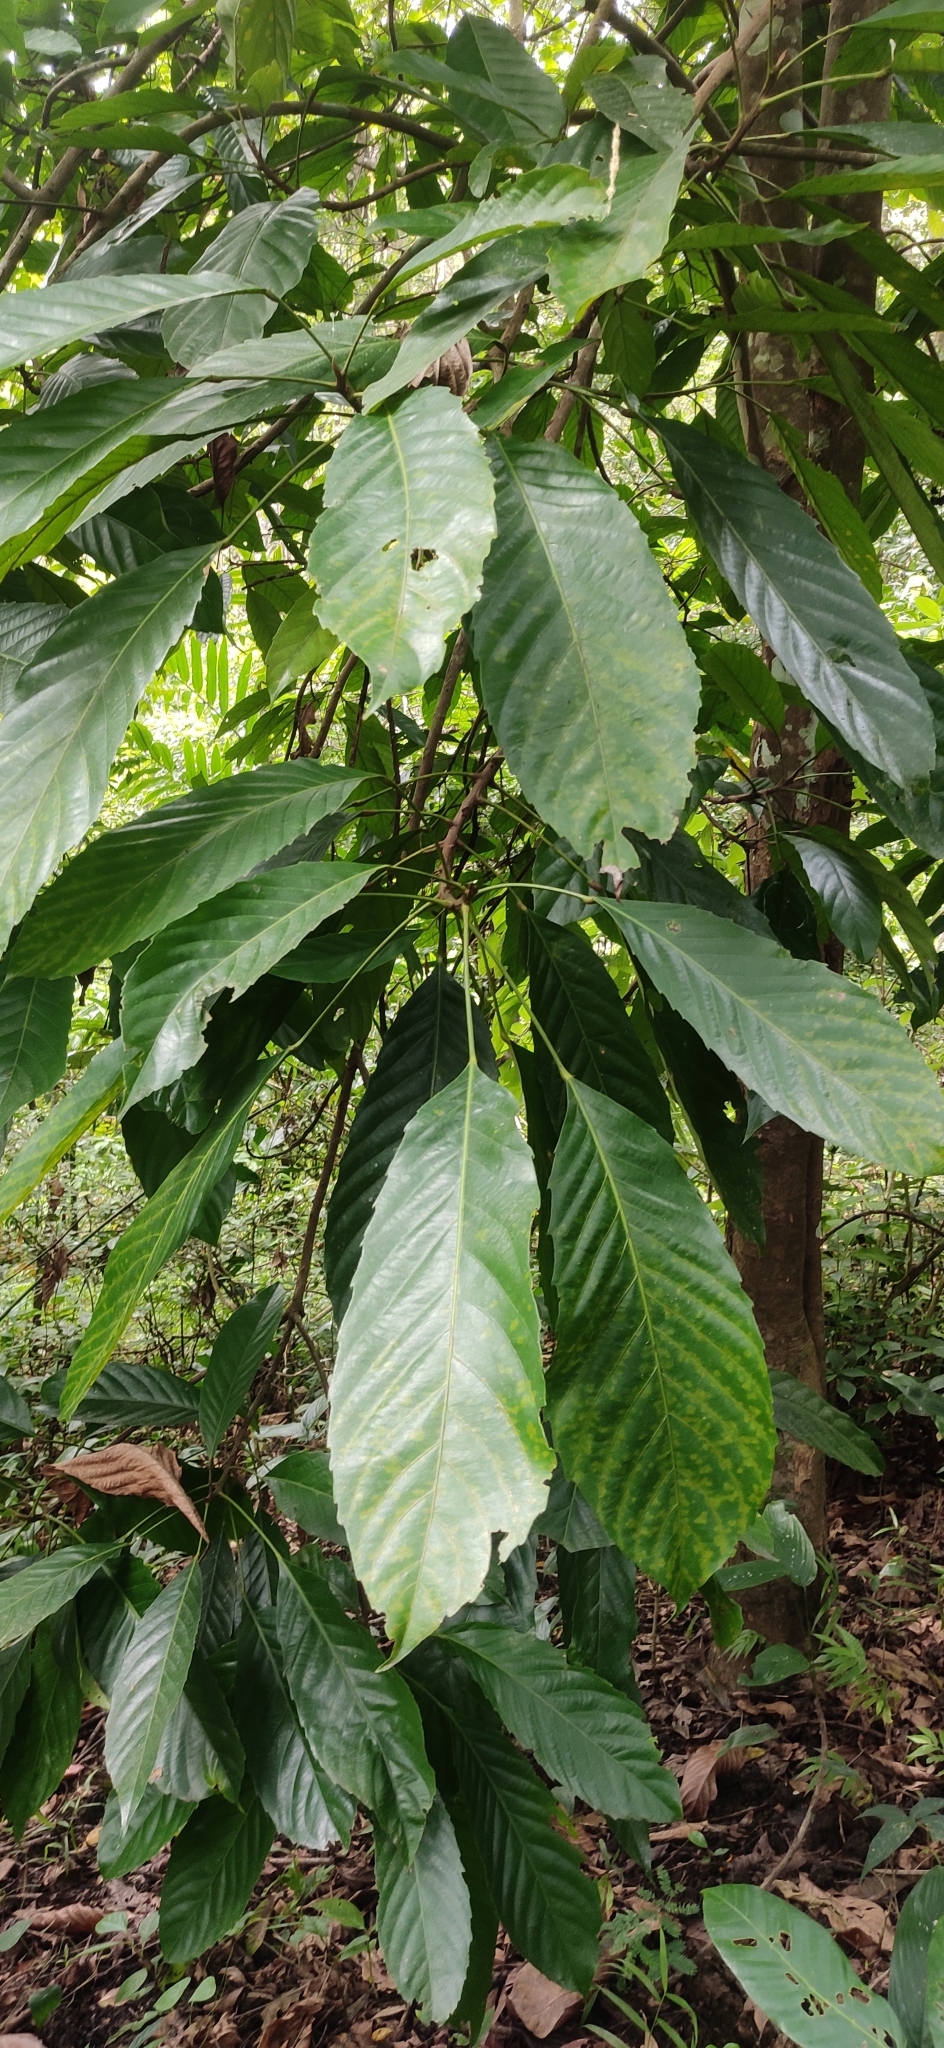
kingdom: Plantae
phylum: Tracheophyta
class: Magnoliopsida
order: Malpighiales
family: Euphorbiaceae
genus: Paracroton
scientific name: Paracroton pendulus
